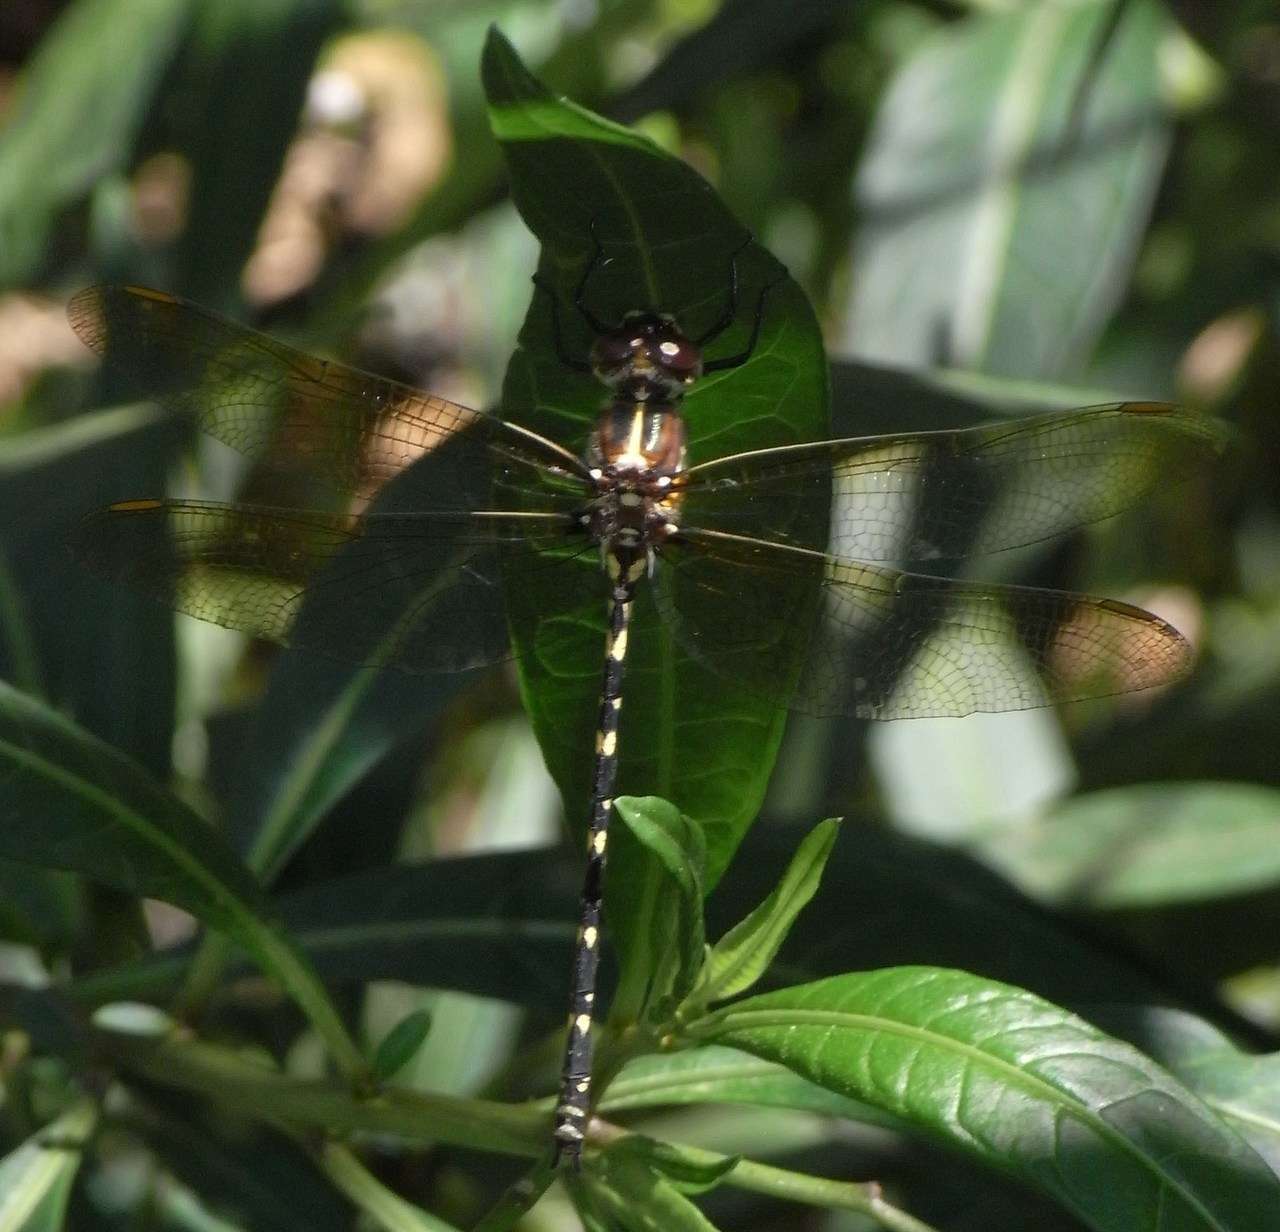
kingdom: Animalia
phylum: Arthropoda
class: Insecta
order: Odonata
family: Synthemistidae
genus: Synthemis
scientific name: Synthemis eustalacta
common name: Swamp tigertail
